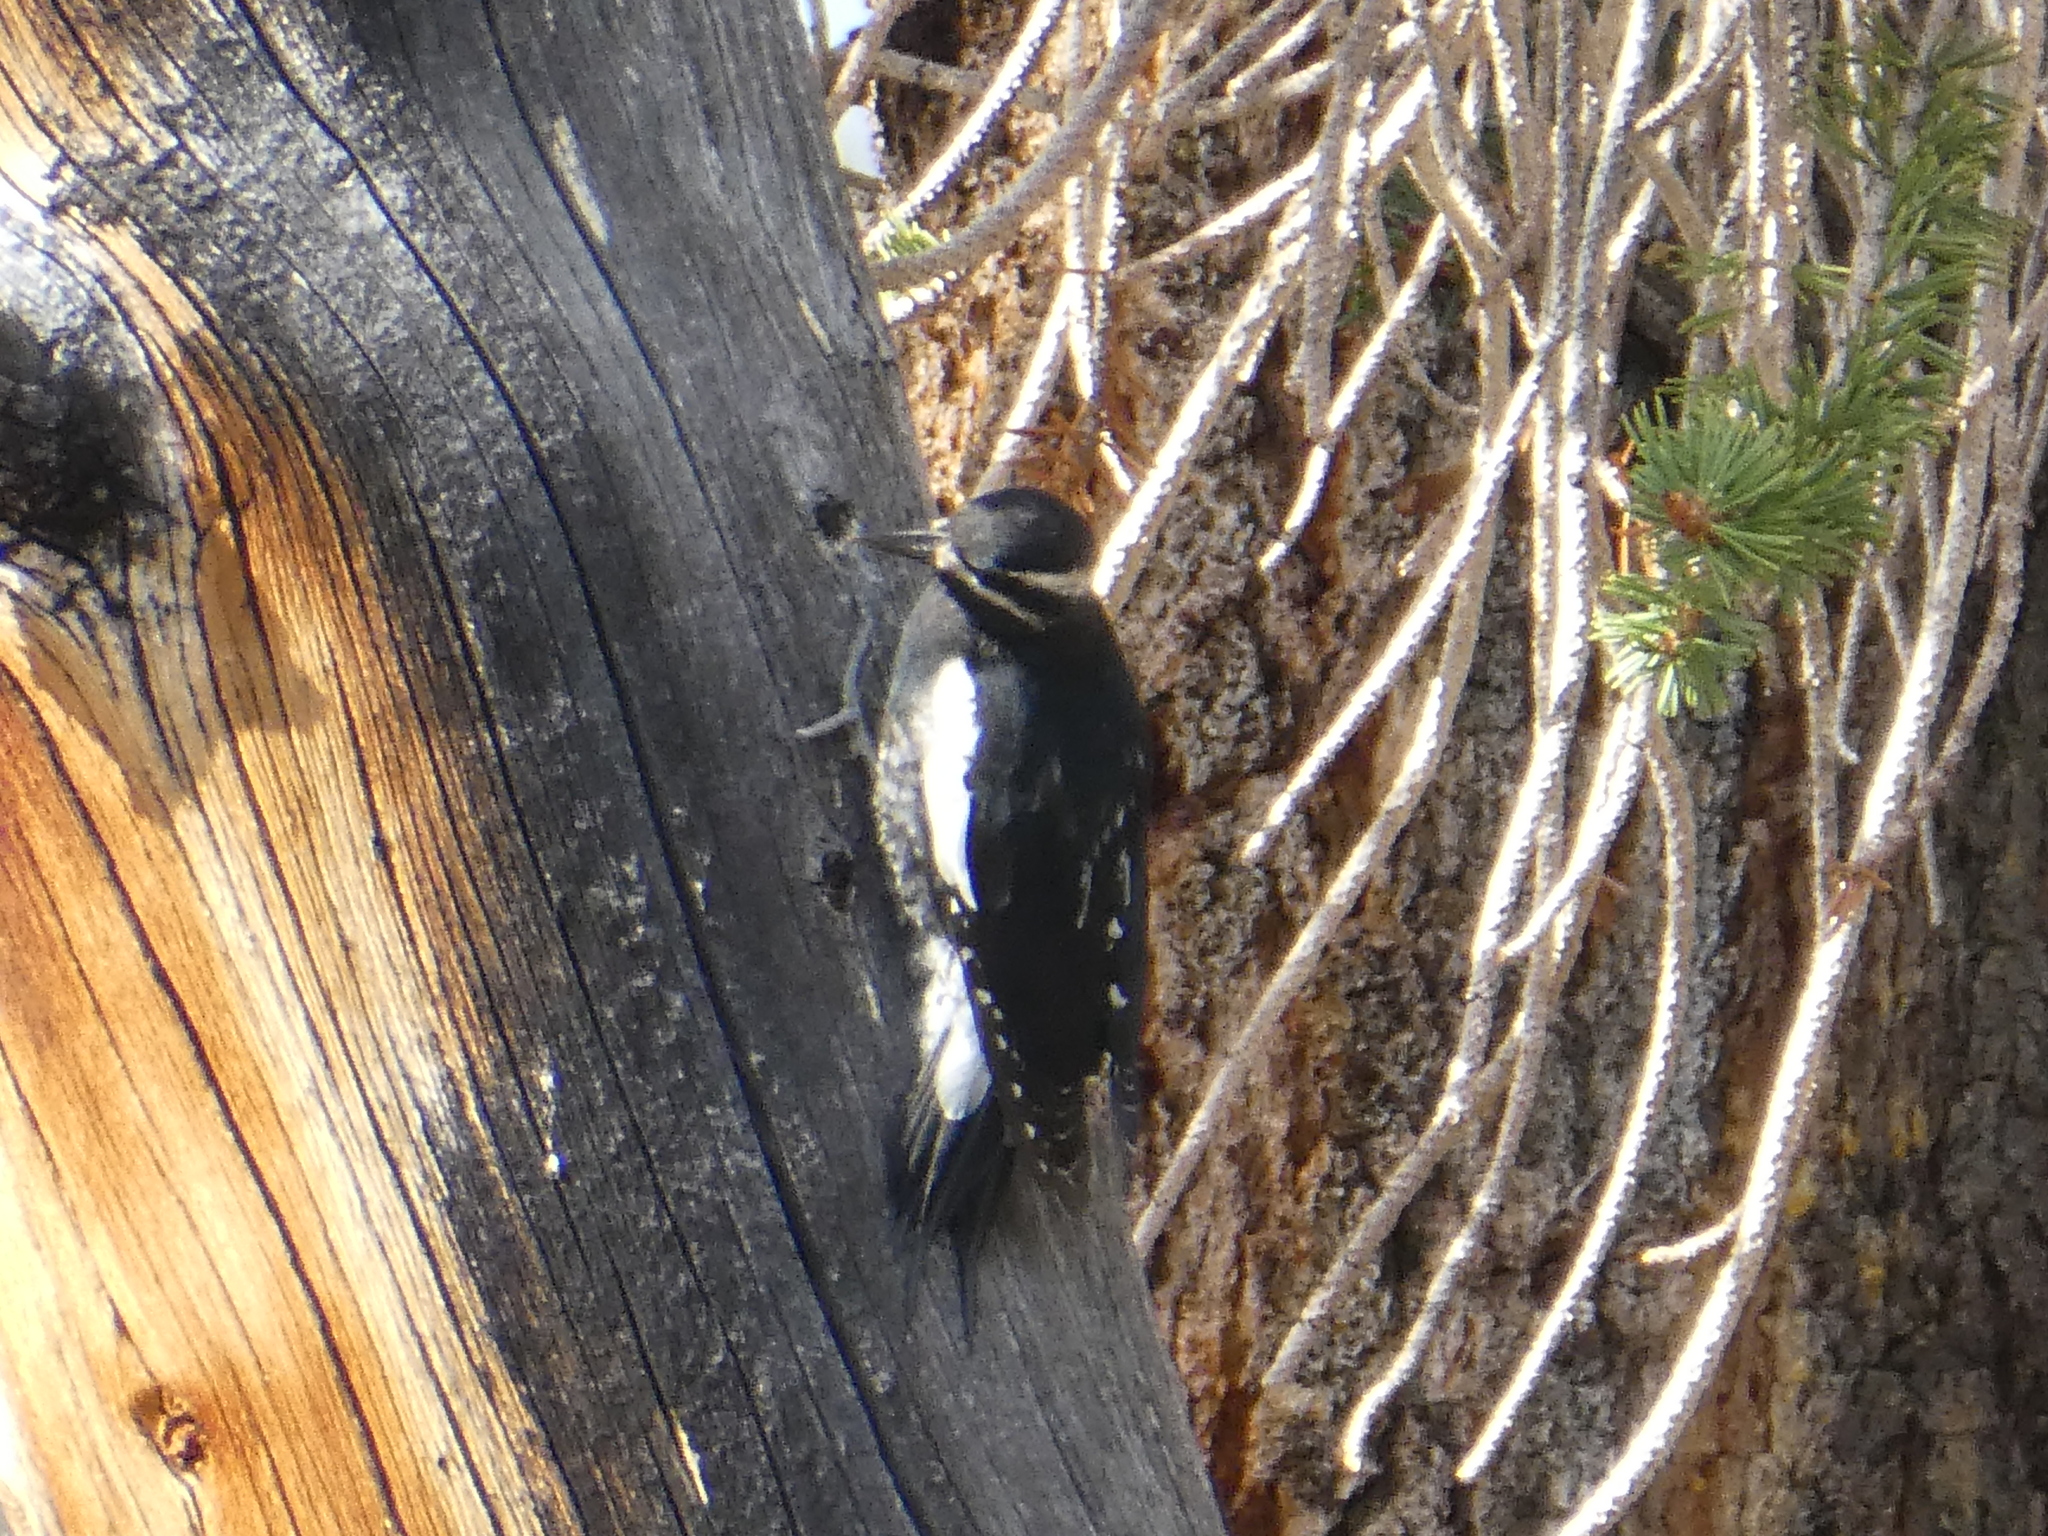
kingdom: Animalia
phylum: Chordata
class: Aves
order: Piciformes
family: Picidae
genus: Sphyrapicus
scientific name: Sphyrapicus thyroideus
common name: Williamson's sapsucker
